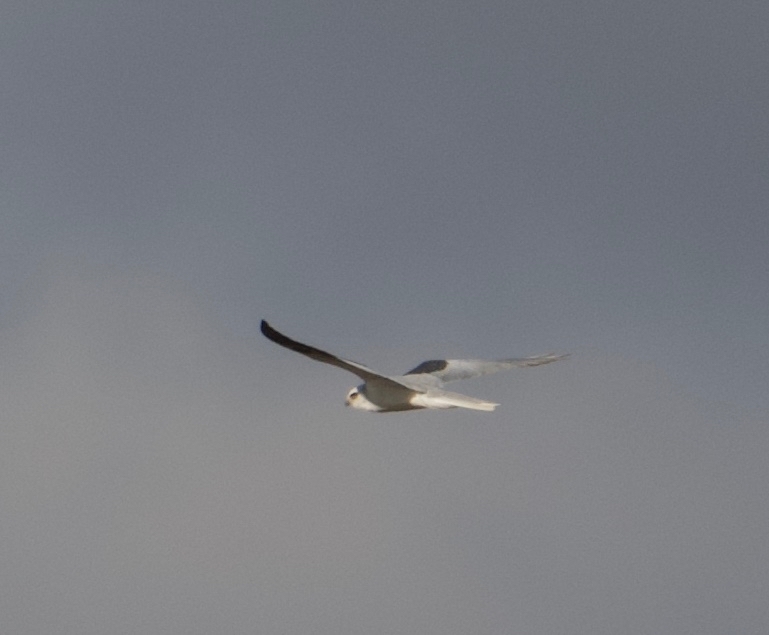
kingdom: Animalia
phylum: Chordata
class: Aves
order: Accipitriformes
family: Accipitridae
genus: Elanus
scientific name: Elanus leucurus
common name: White-tailed kite
